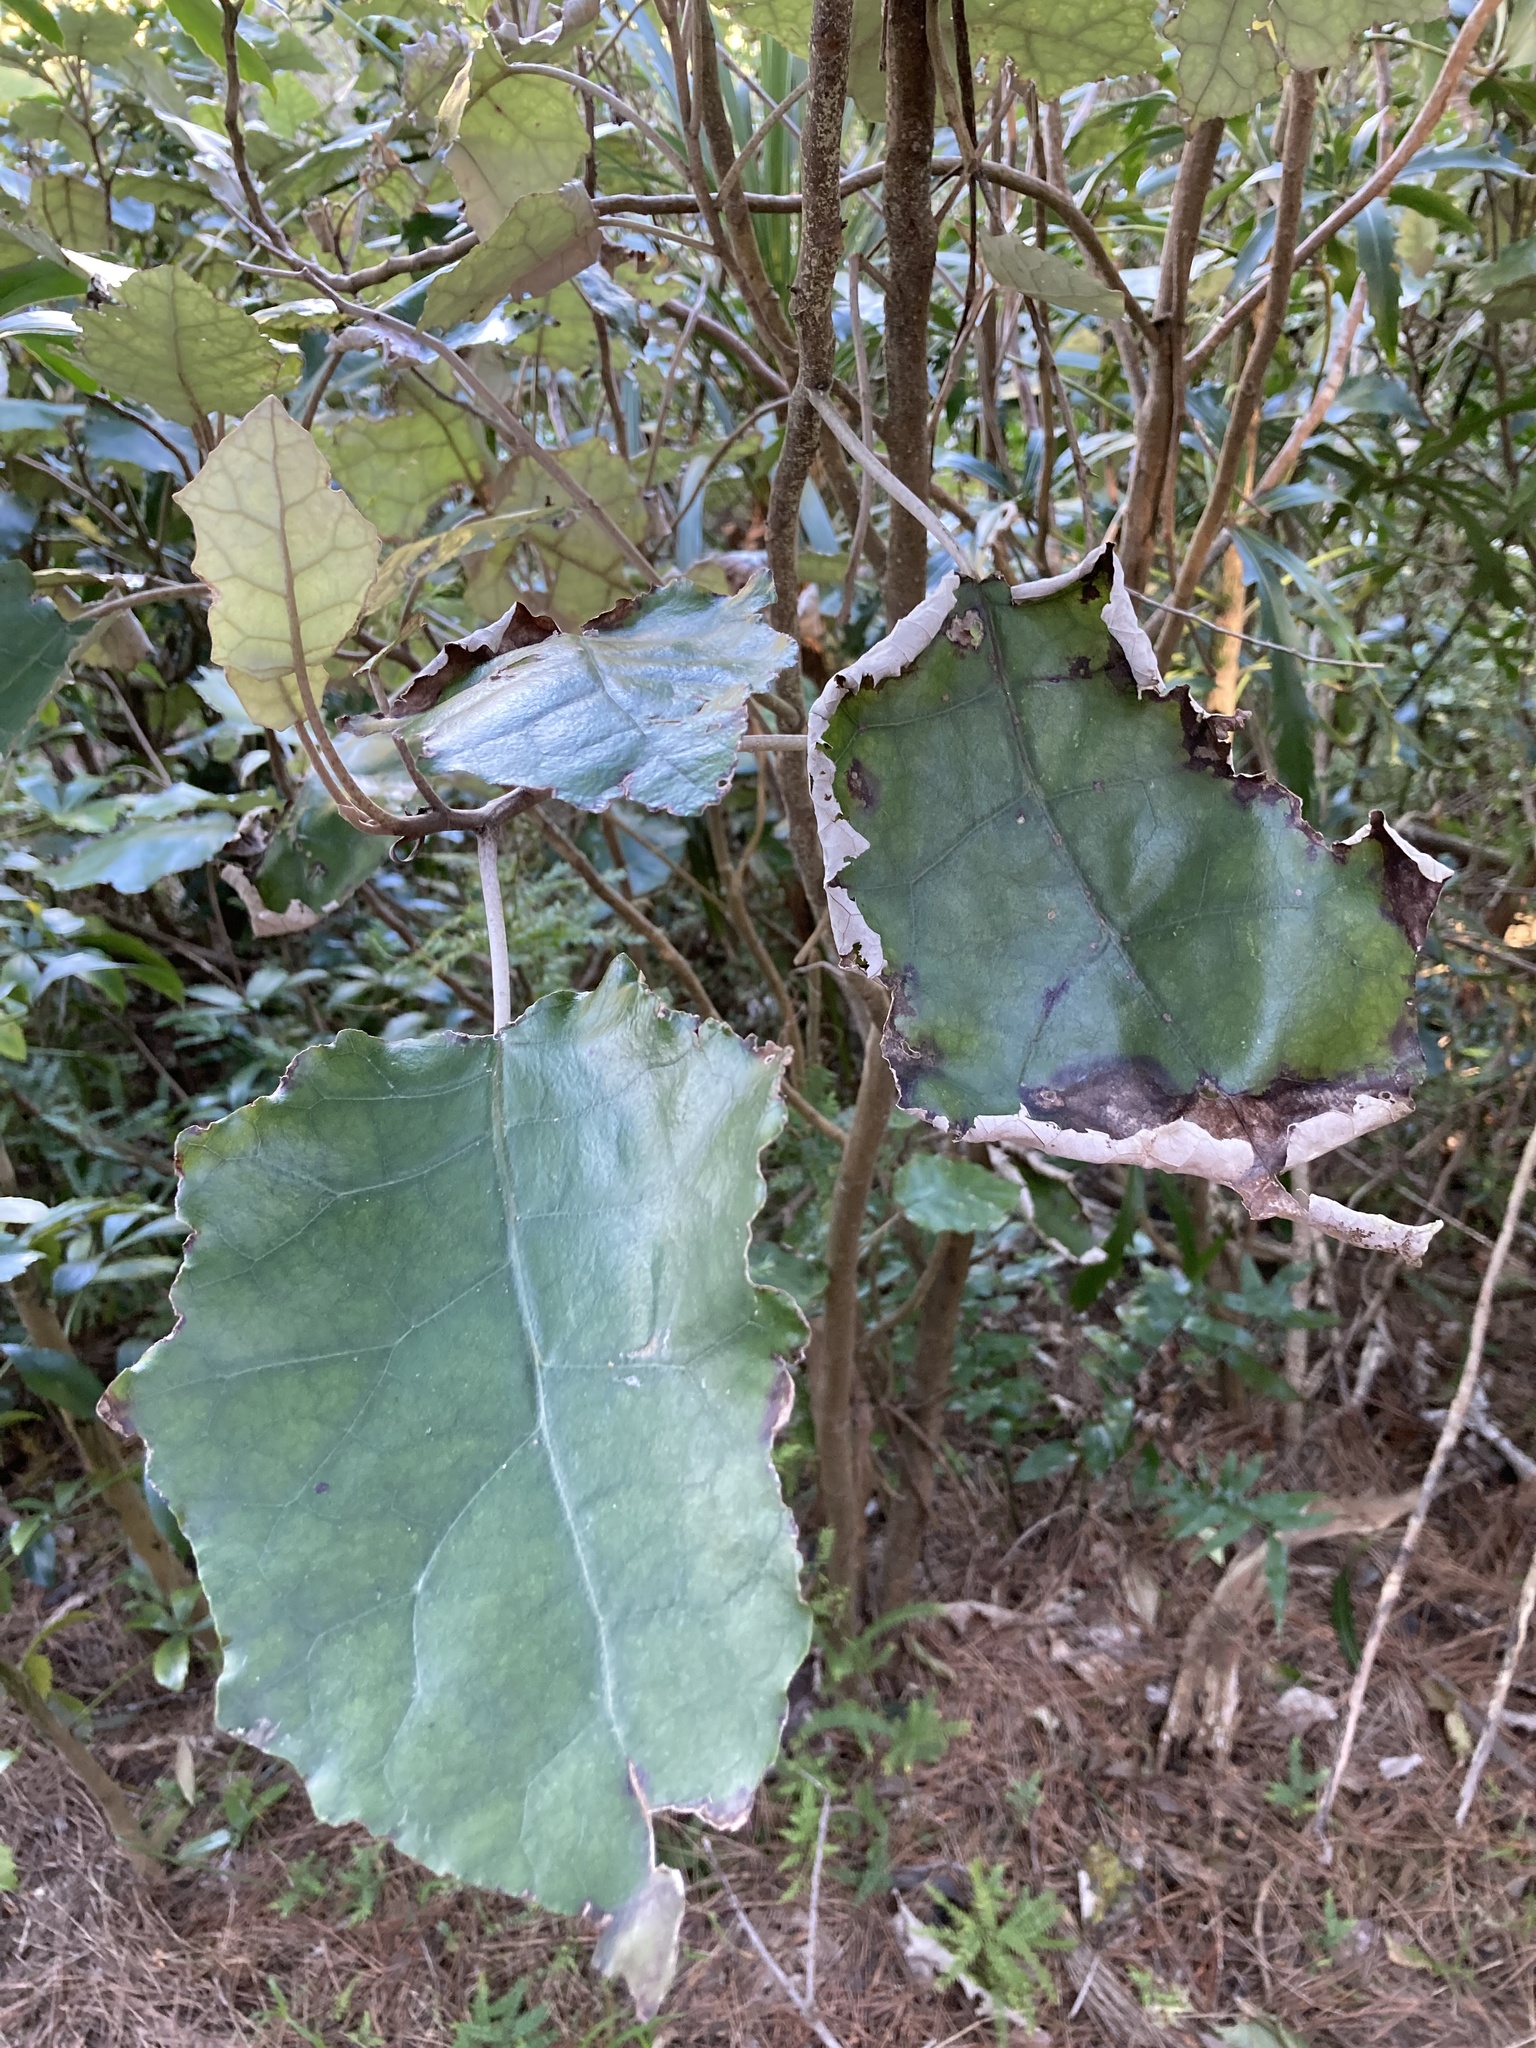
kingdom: Plantae
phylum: Tracheophyta
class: Magnoliopsida
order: Asterales
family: Asteraceae
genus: Brachyglottis
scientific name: Brachyglottis repanda
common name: Hedge ragwort
